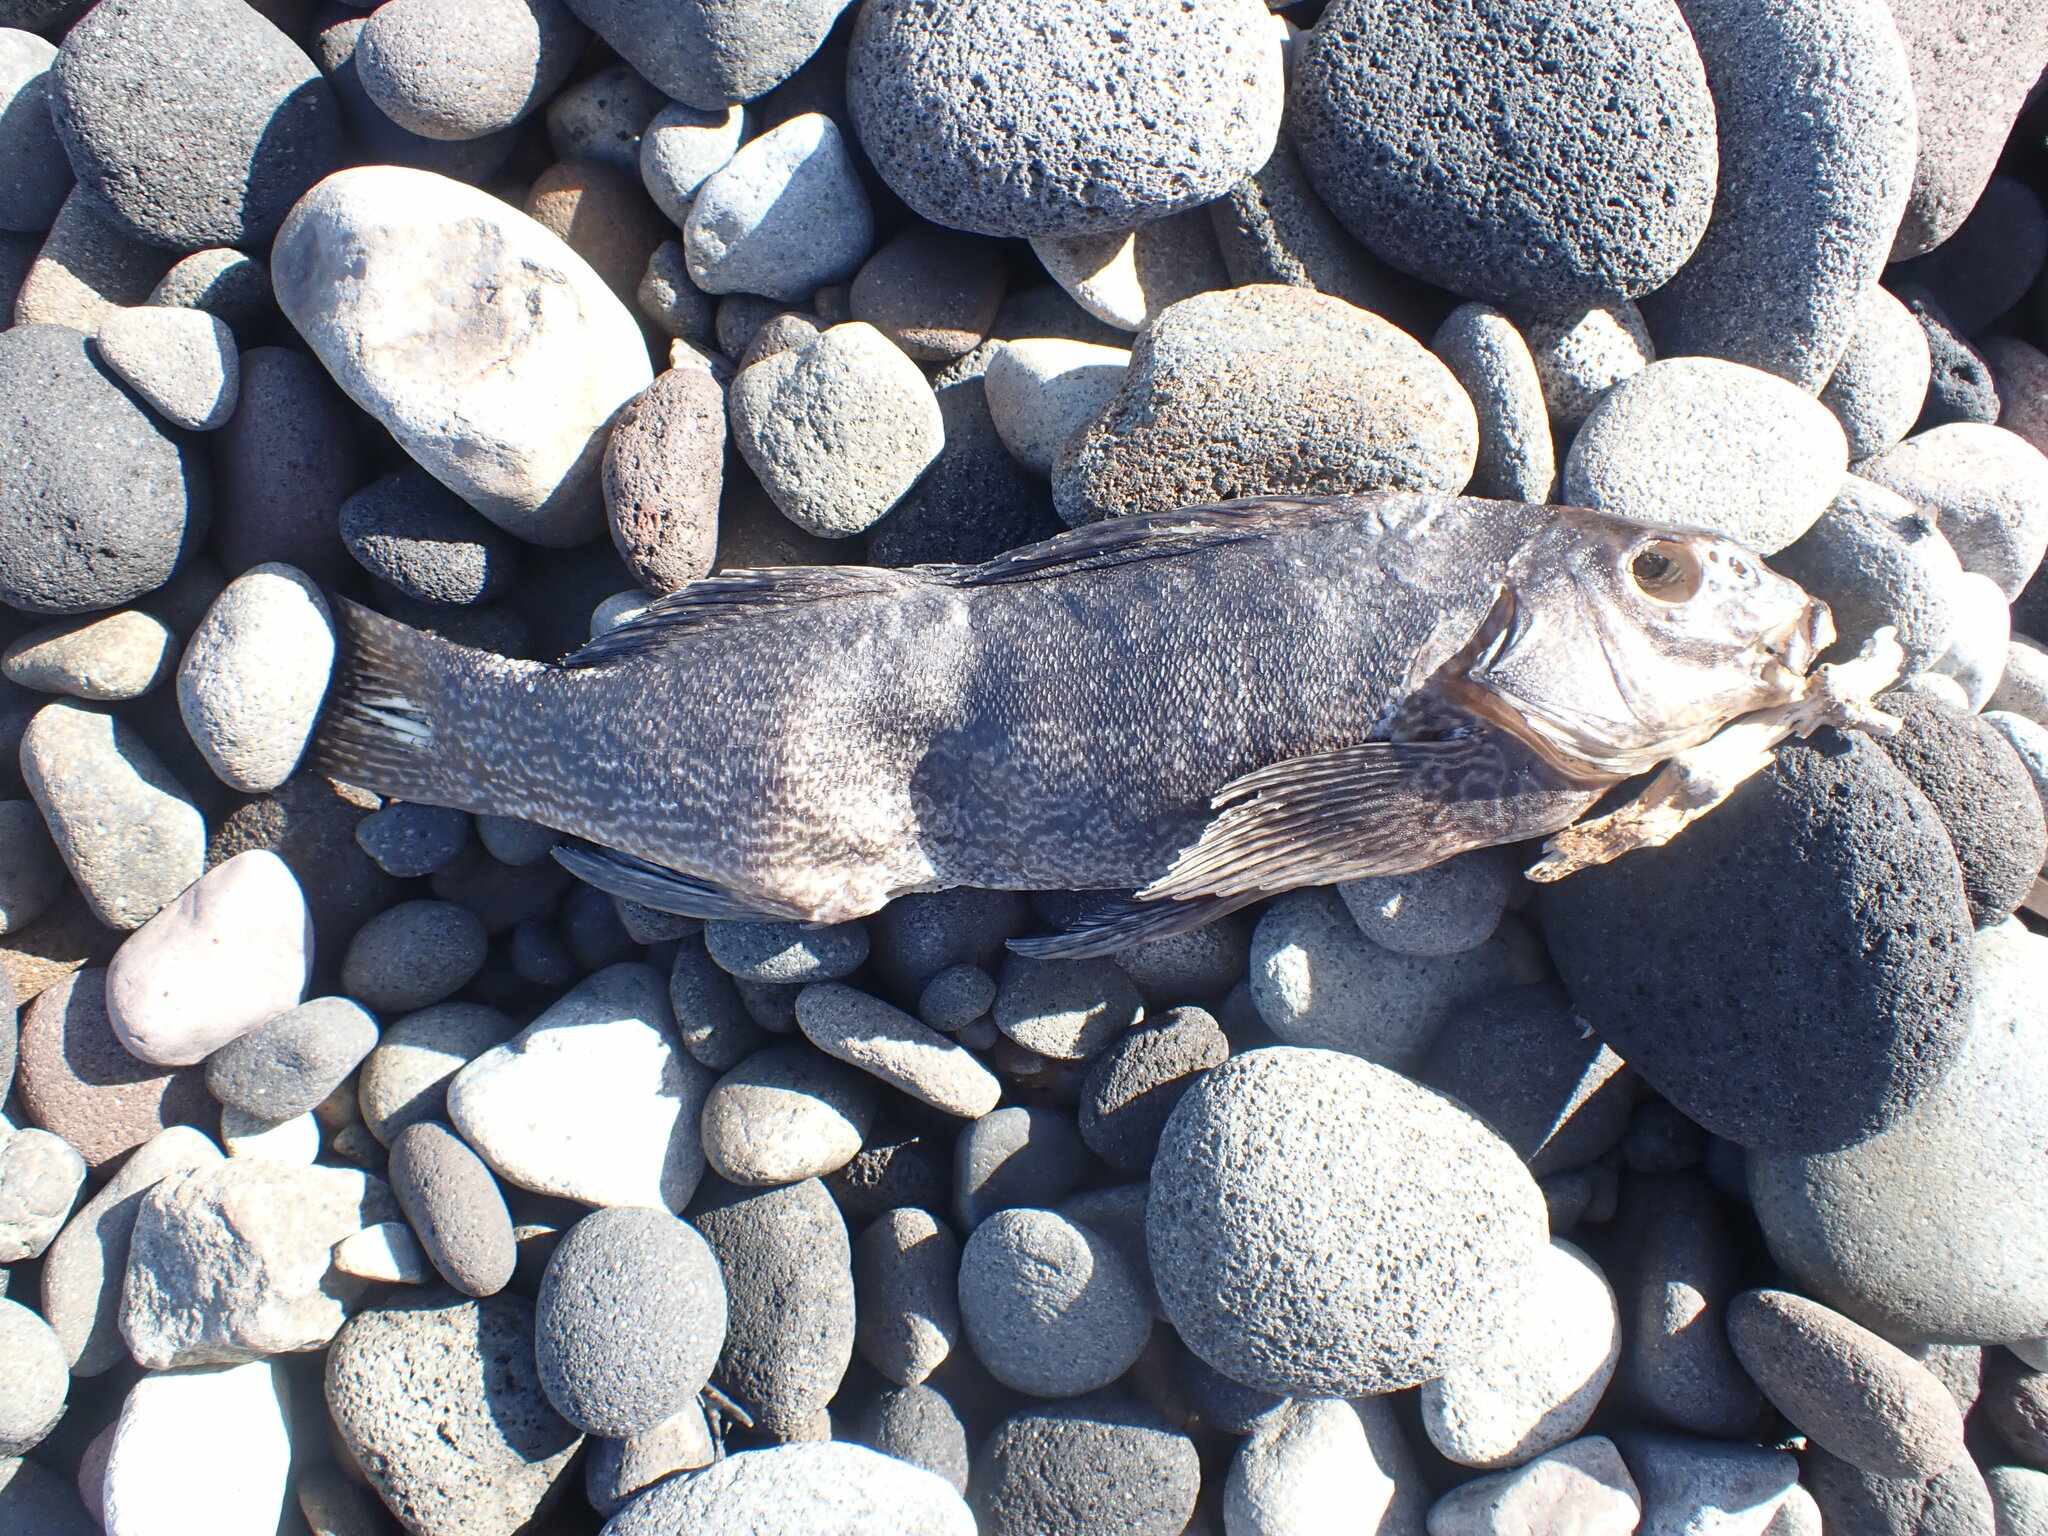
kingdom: Animalia
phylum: Chordata
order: Perciformes
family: Aplodactylidae
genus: Aplodactylus
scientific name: Aplodactylus arctidens
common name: Marblefish
